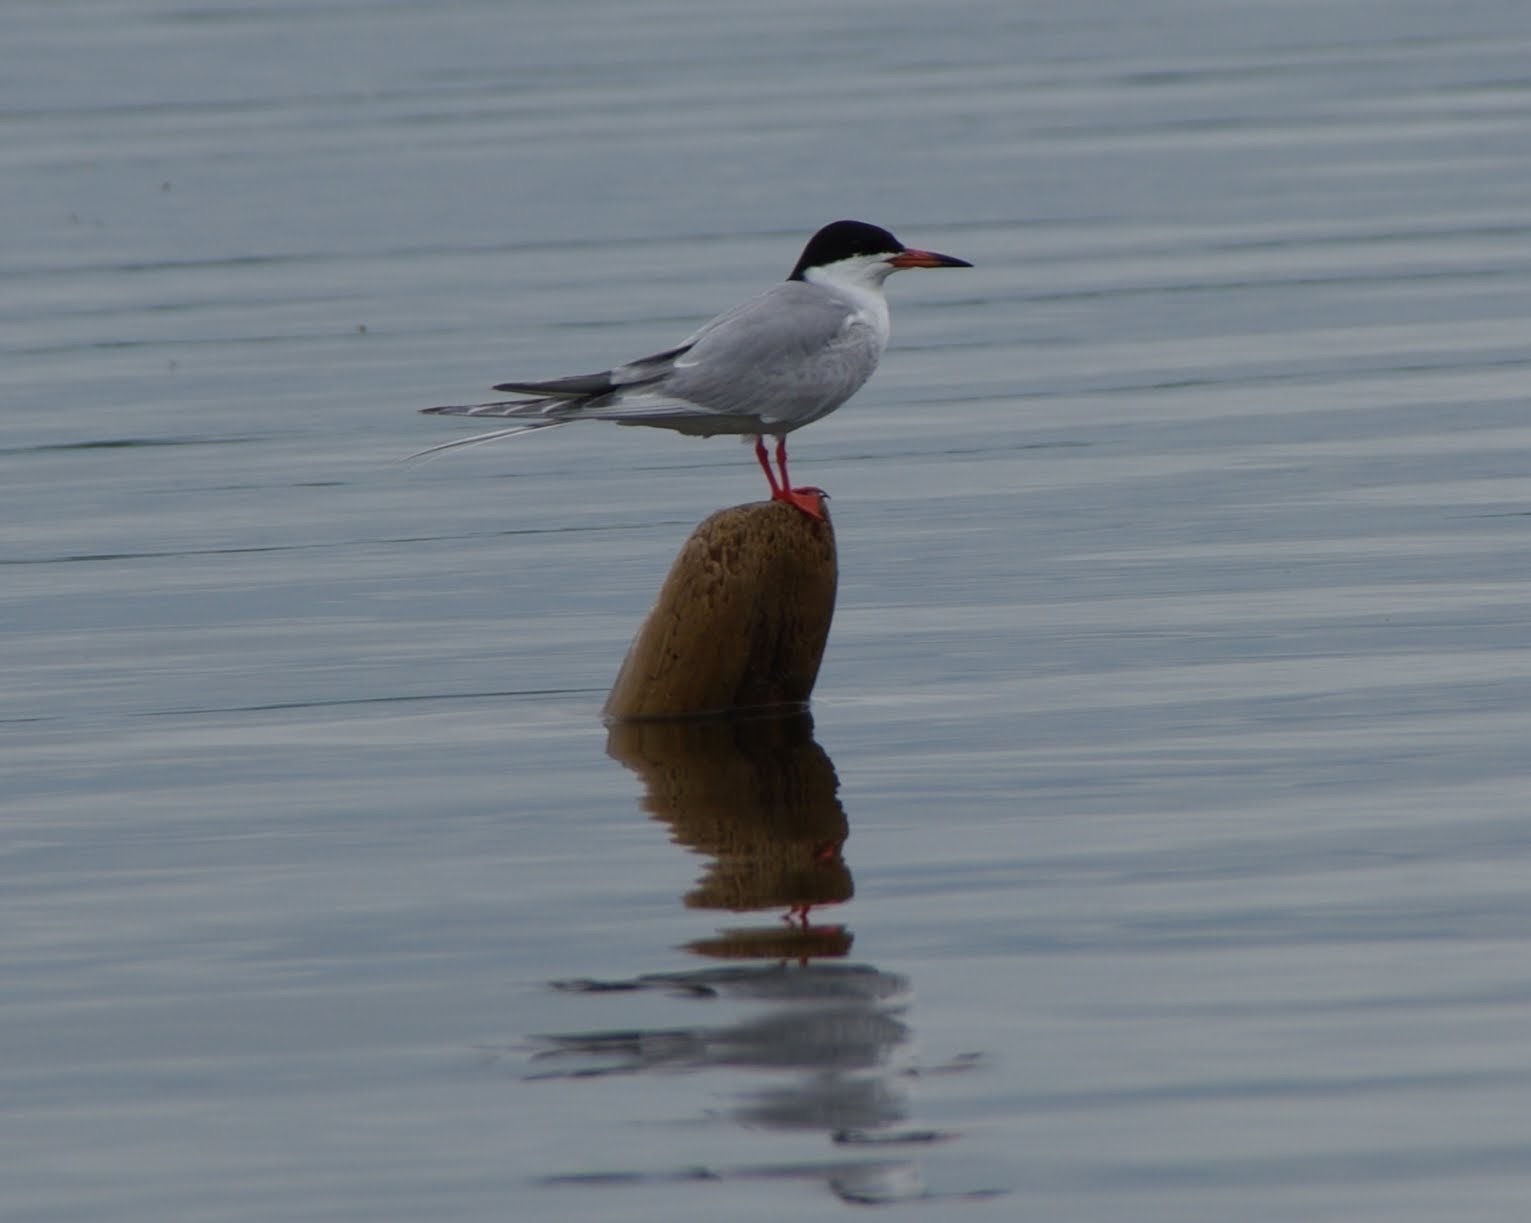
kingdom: Animalia
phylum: Chordata
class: Aves
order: Charadriiformes
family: Laridae
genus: Sterna
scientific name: Sterna forsteri
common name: Forster's tern
